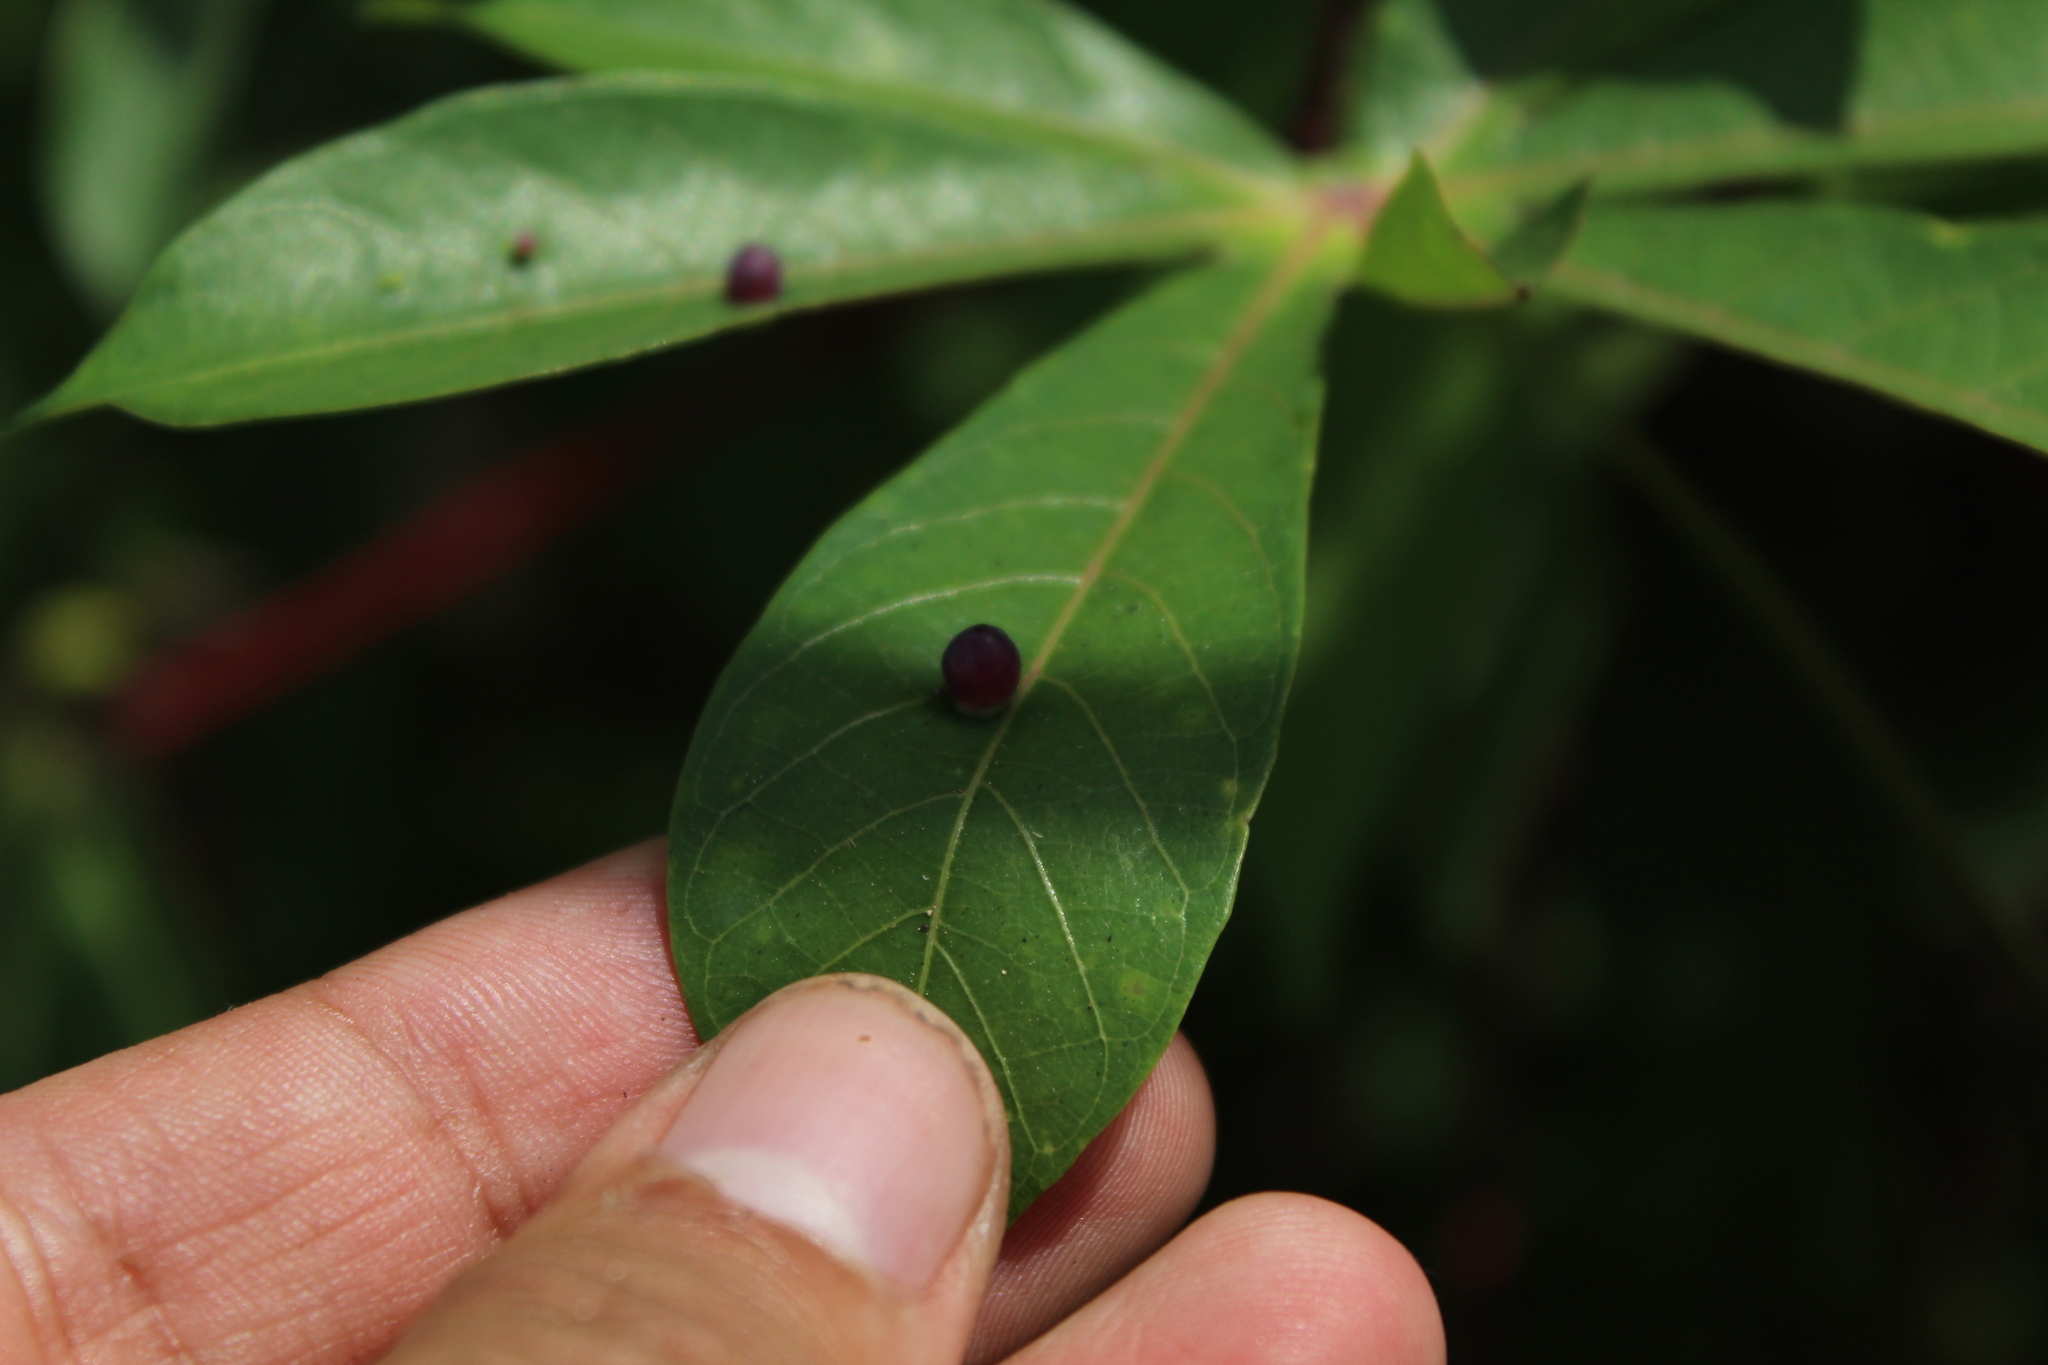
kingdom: Animalia
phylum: Arthropoda
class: Insecta
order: Diptera
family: Cecidomyiidae
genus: Iatrophobia
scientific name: Iatrophobia brasiliensis
